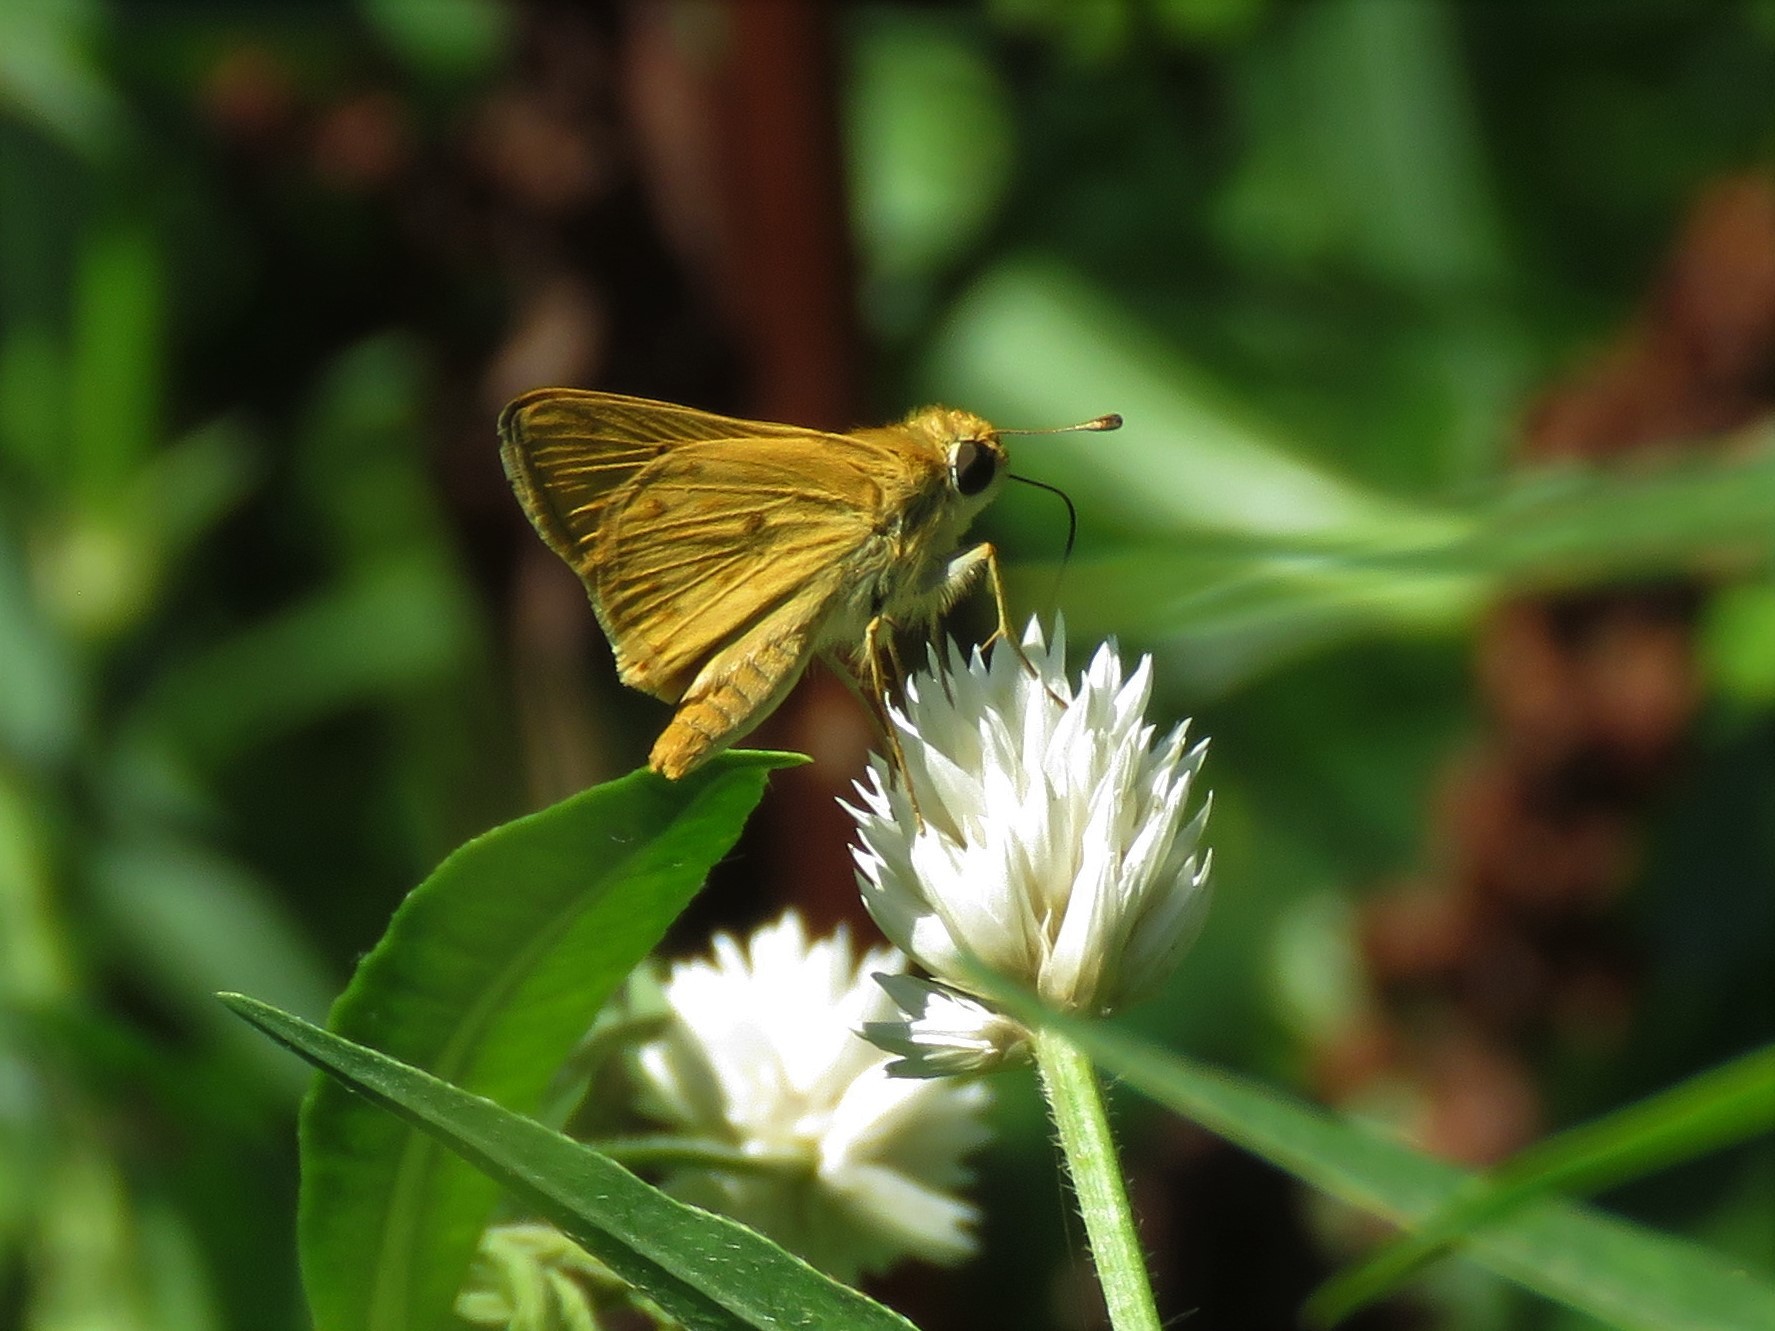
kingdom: Animalia
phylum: Arthropoda
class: Insecta
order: Lepidoptera
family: Hesperiidae
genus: Hylephila
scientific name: Hylephila phyleus
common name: Fiery skipper
